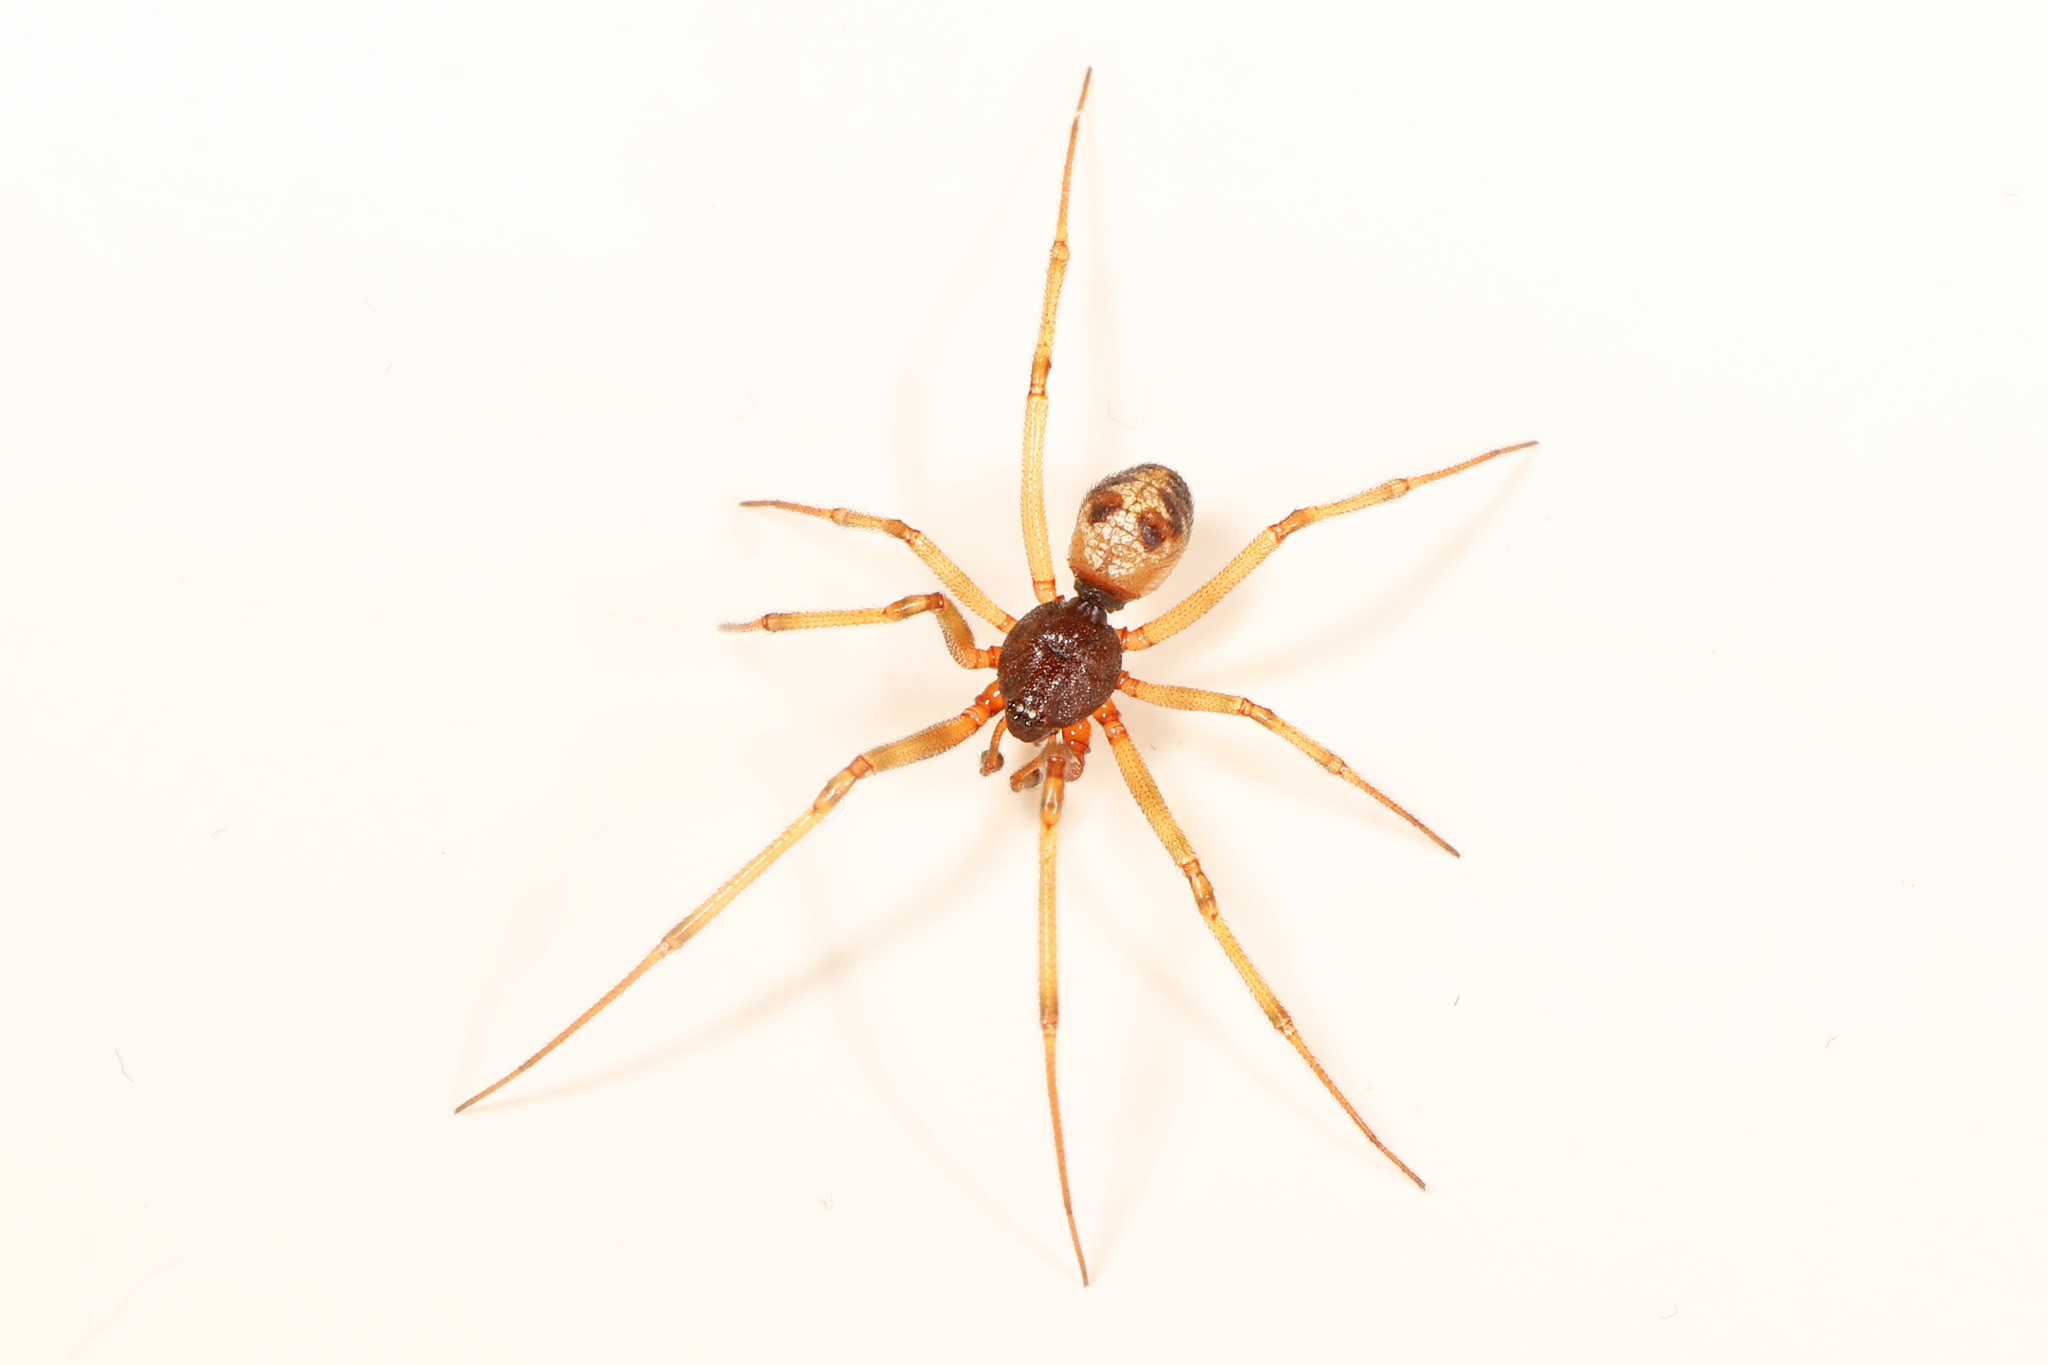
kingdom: Animalia
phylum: Arthropoda
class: Arachnida
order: Araneae
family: Theridiidae
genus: Steatoda
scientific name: Steatoda triangulosa
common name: Triangulate bud spider
